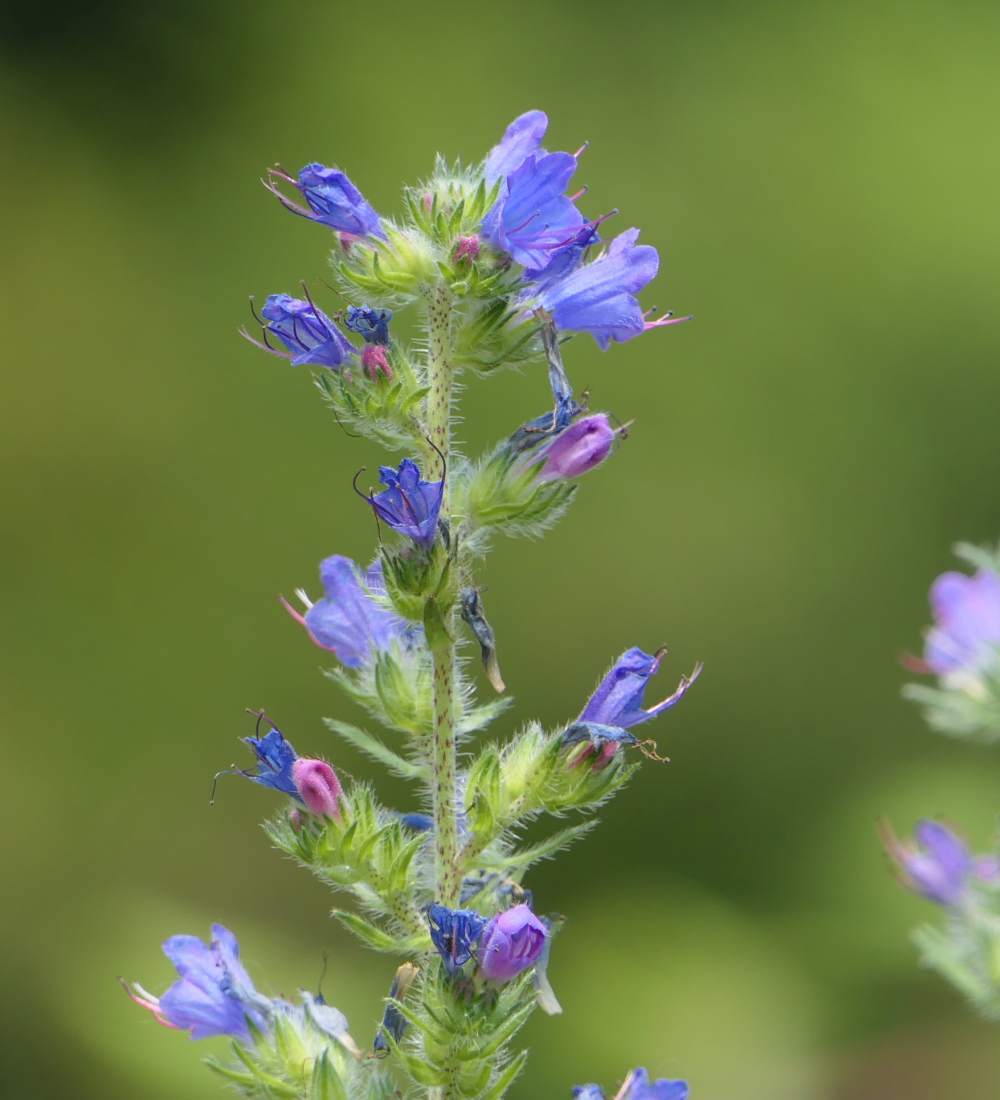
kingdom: Plantae
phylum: Tracheophyta
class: Magnoliopsida
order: Boraginales
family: Boraginaceae
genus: Echium
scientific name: Echium vulgare
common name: Common viper's bugloss
